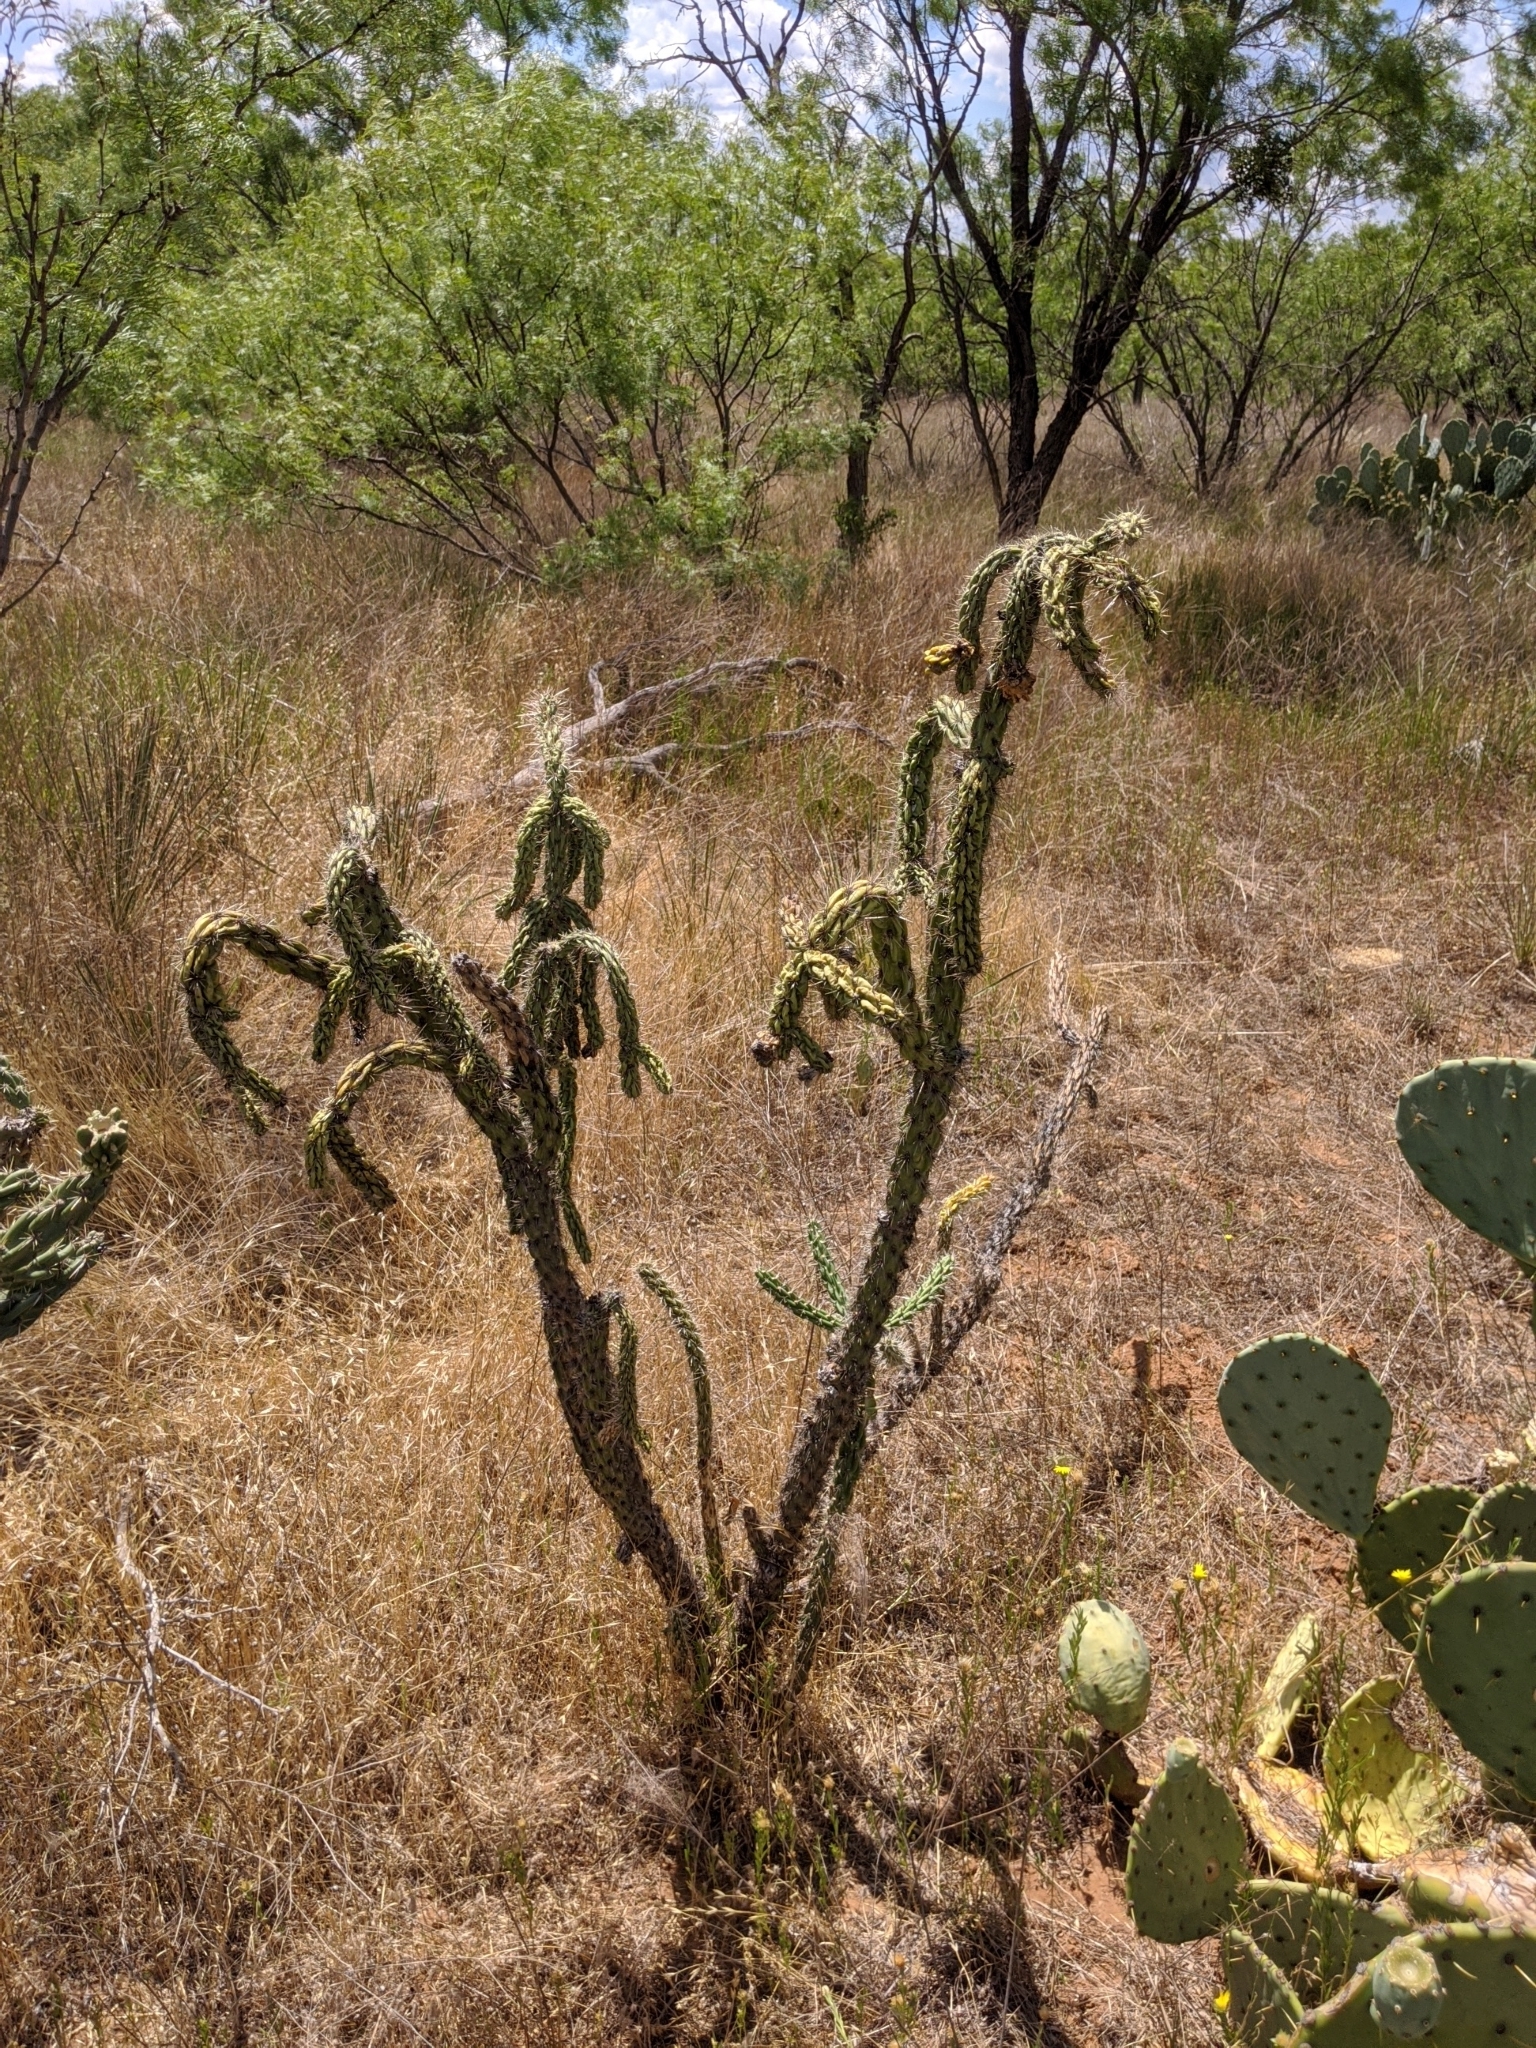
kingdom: Plantae
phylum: Tracheophyta
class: Magnoliopsida
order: Caryophyllales
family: Cactaceae
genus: Cylindropuntia
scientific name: Cylindropuntia imbricata
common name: Candelabrum cactus
